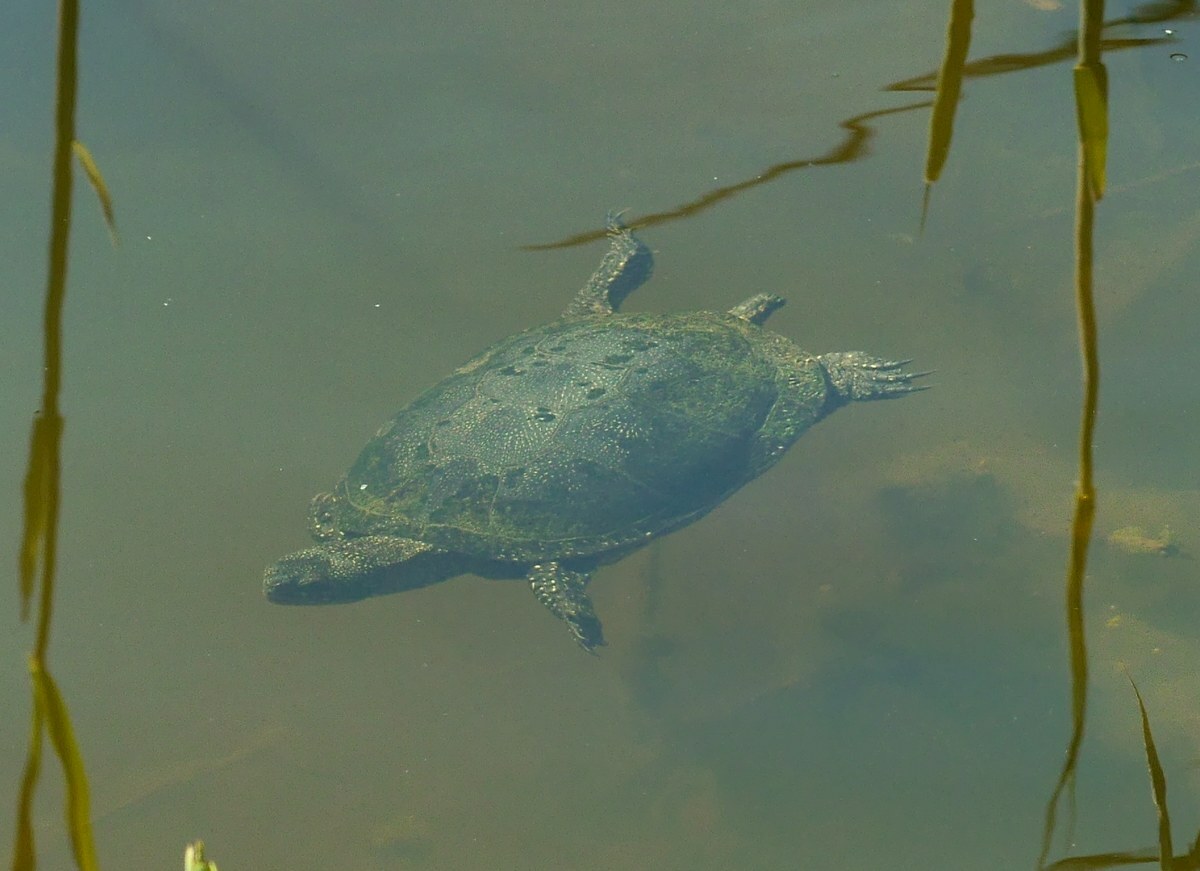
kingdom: Animalia
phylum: Chordata
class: Testudines
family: Emydidae
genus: Emys
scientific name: Emys orbicularis
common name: European pond turtle
